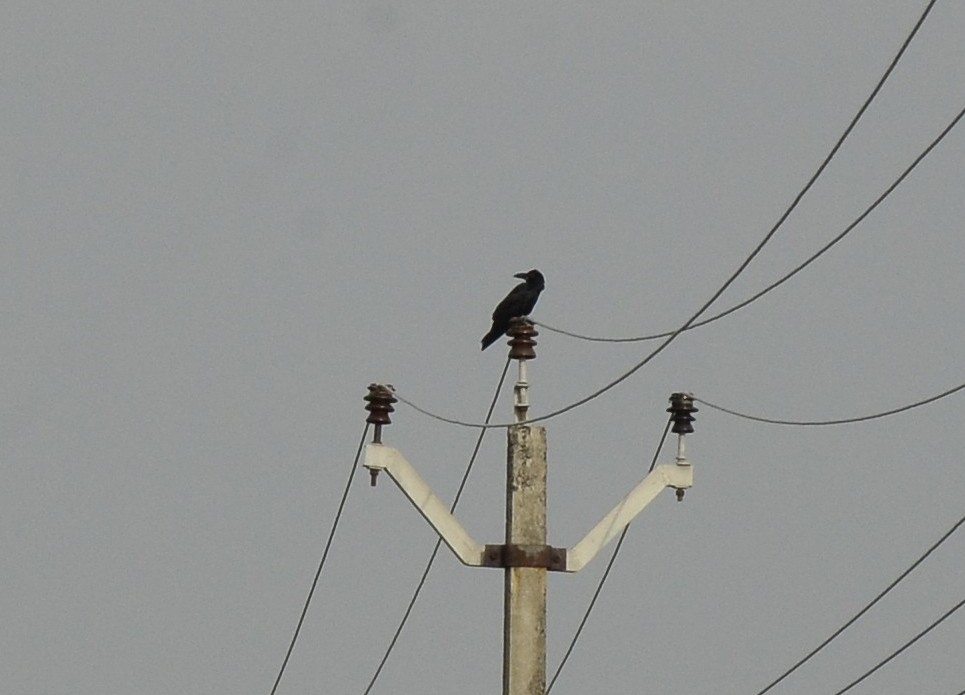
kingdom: Animalia
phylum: Chordata
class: Aves
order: Passeriformes
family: Corvidae
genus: Corvus
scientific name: Corvus macrorhynchos
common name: Large-billed crow
